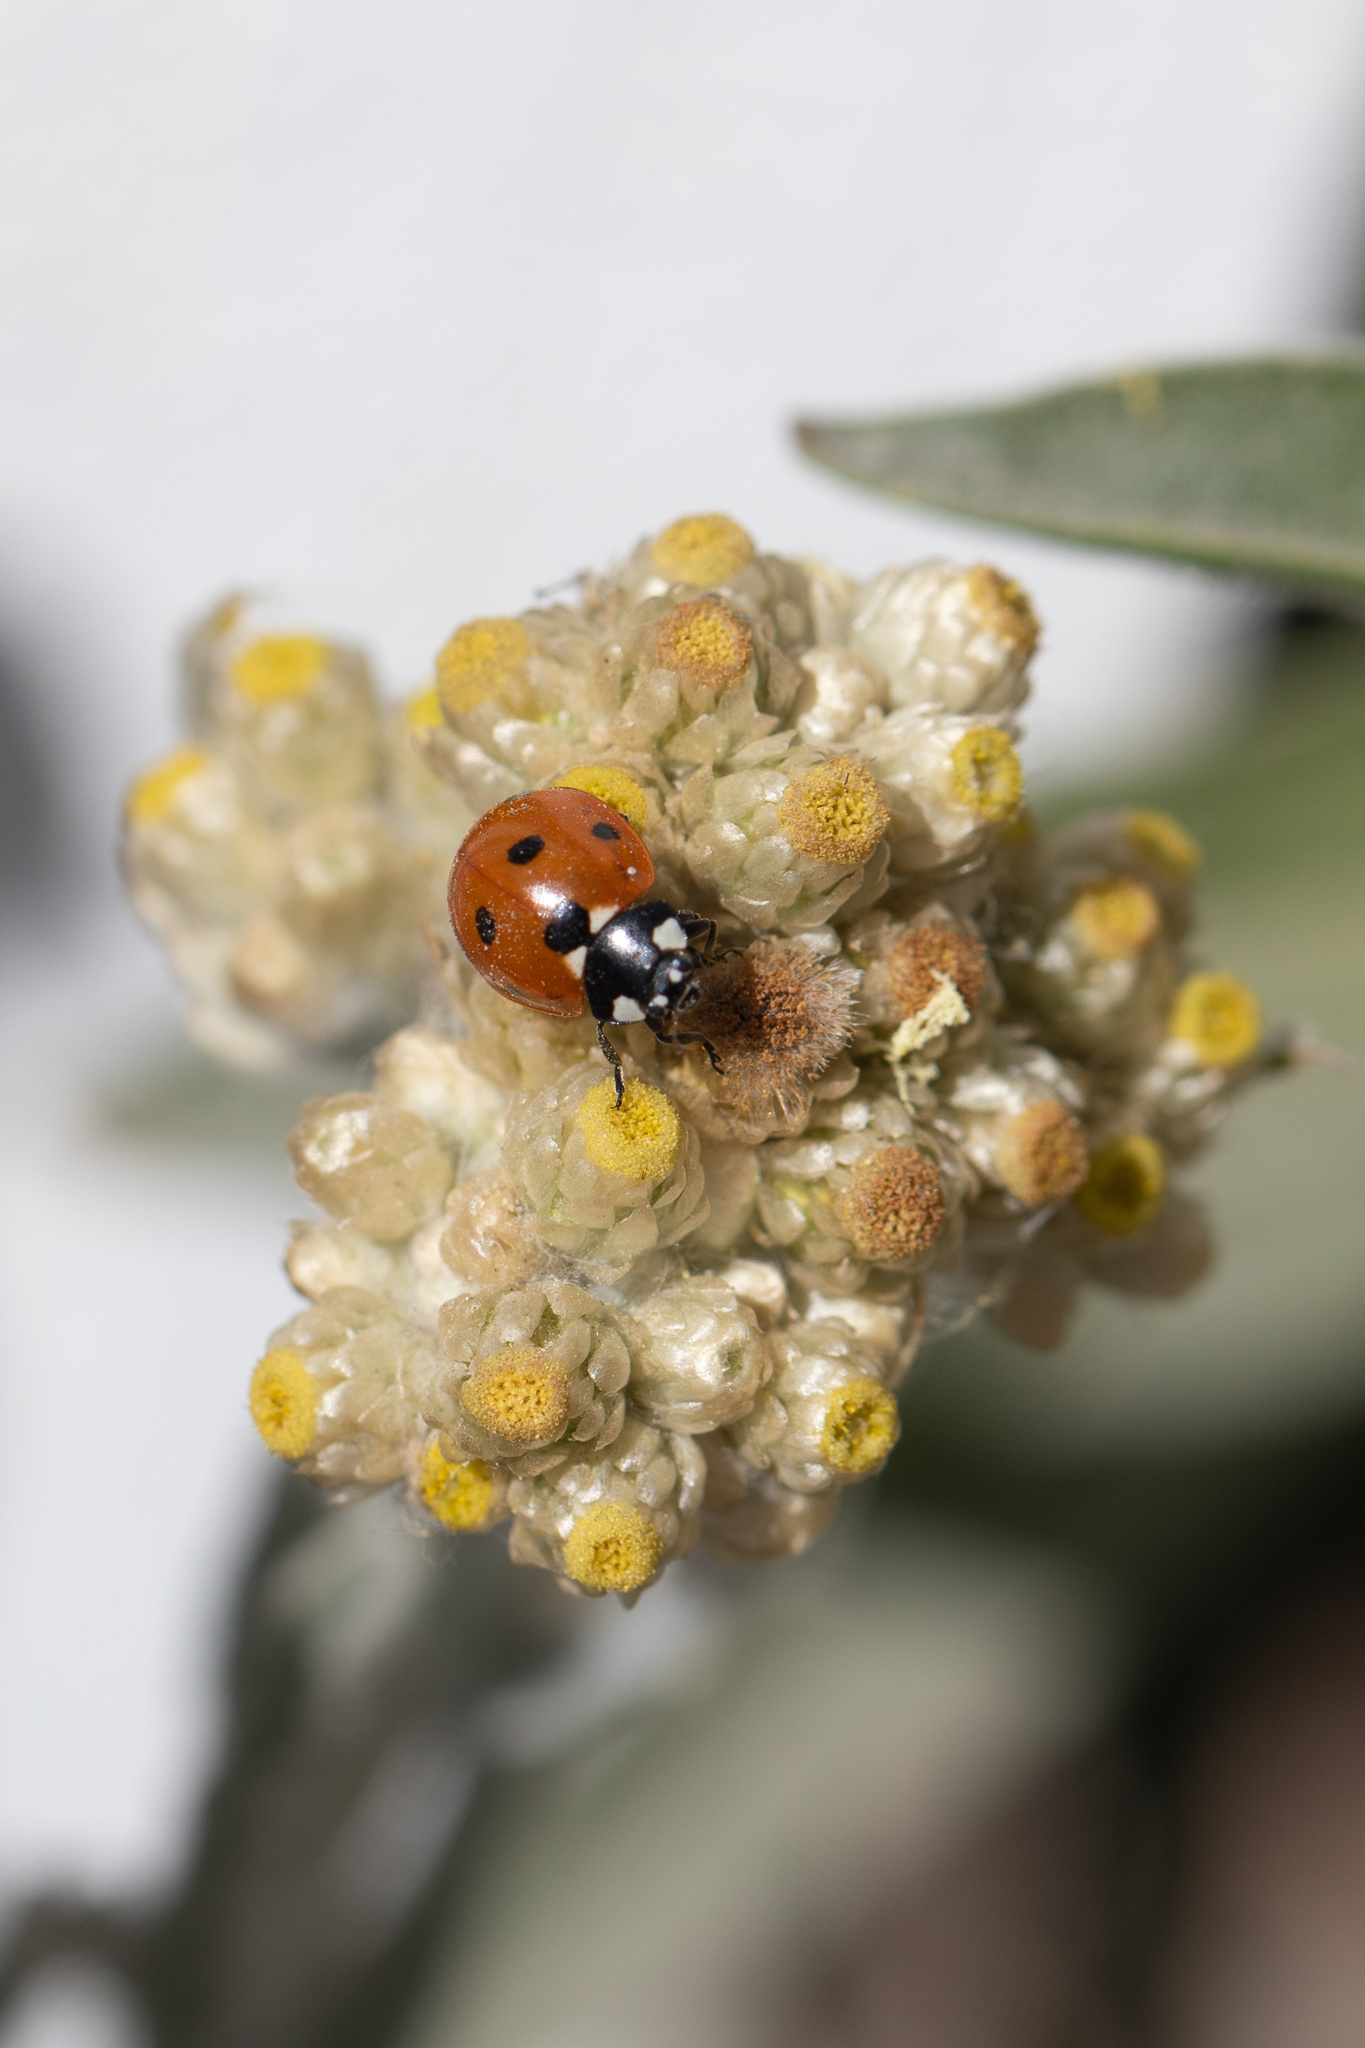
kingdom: Animalia
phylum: Arthropoda
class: Insecta
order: Coleoptera
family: Coccinellidae
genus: Coccinella
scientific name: Coccinella septempunctata
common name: Sevenspotted lady beetle
